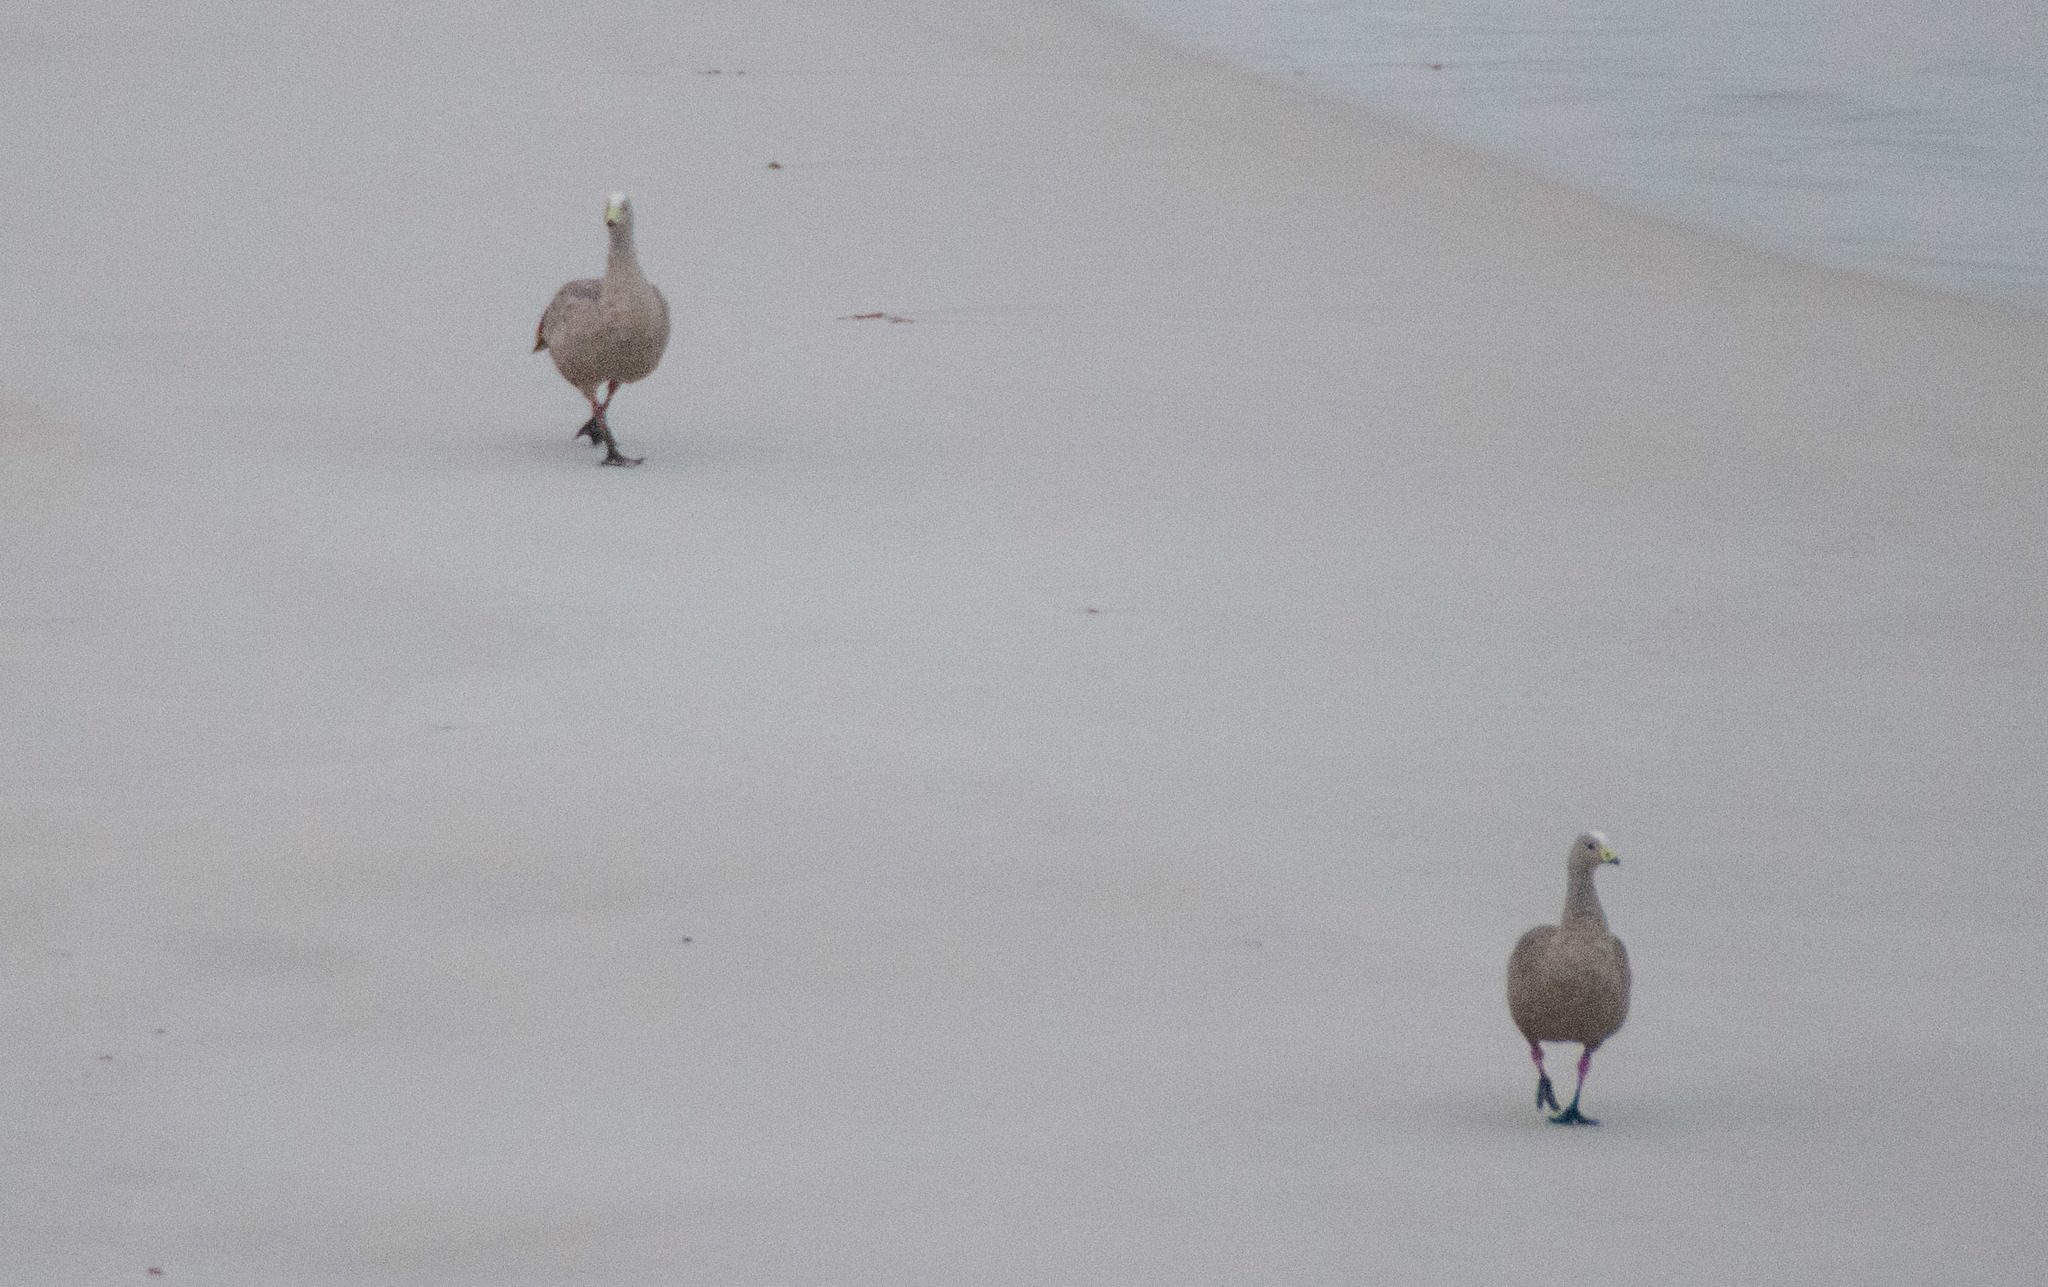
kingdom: Animalia
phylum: Chordata
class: Aves
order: Anseriformes
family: Anatidae
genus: Cereopsis
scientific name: Cereopsis novaehollandiae
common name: Cape barren goose
